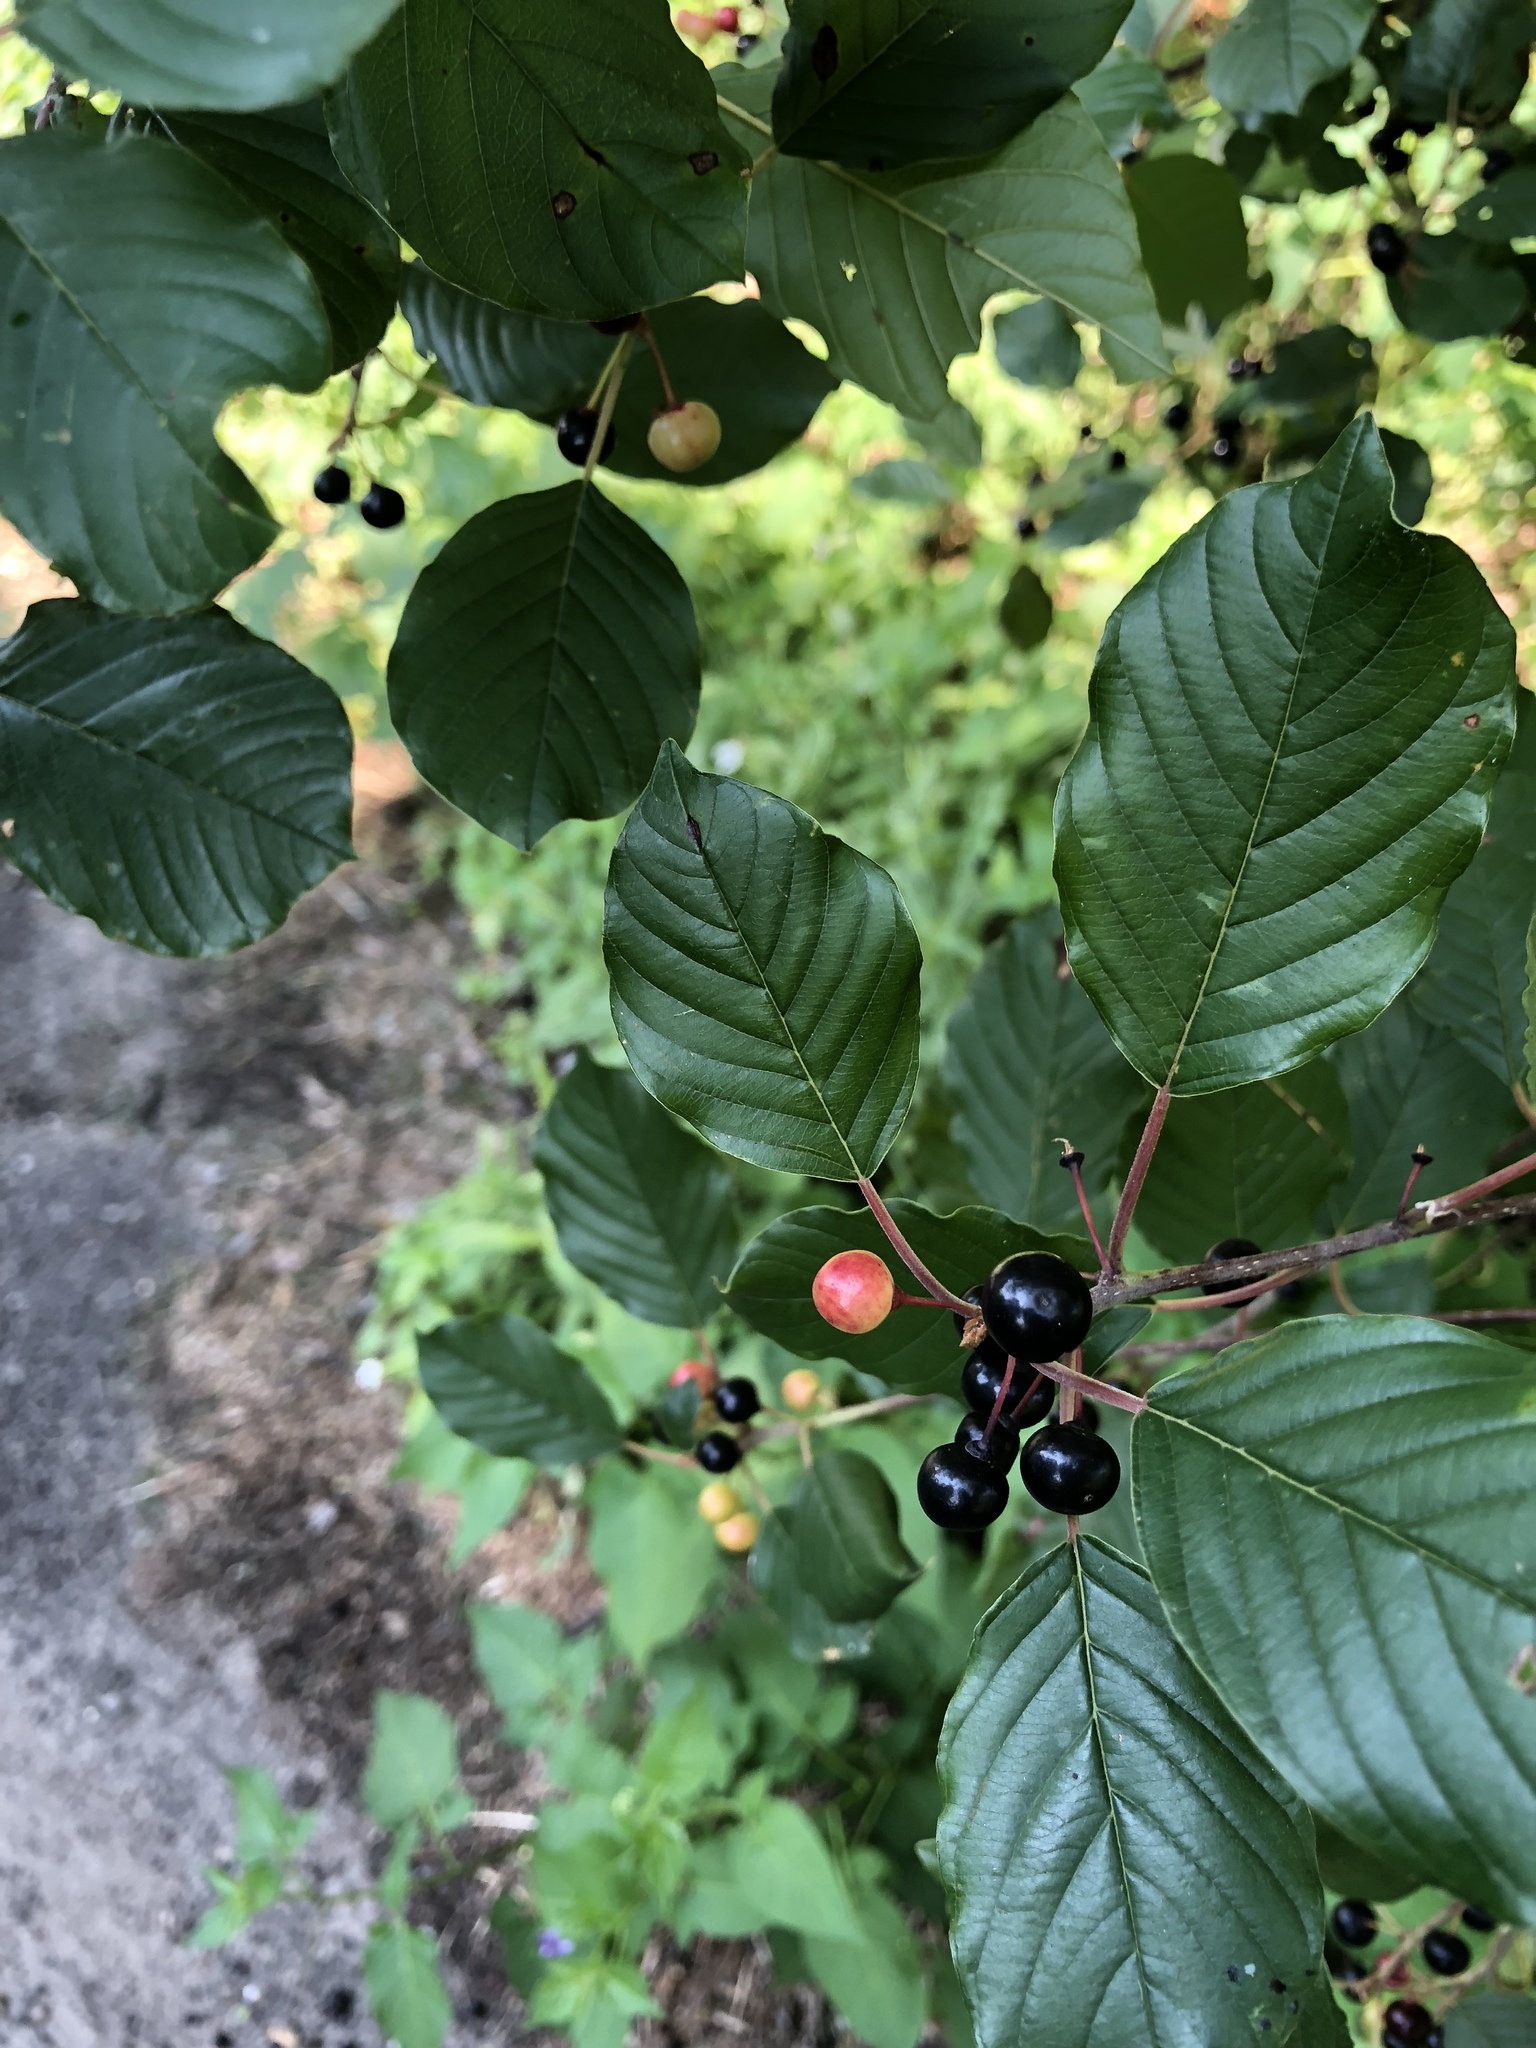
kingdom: Plantae
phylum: Tracheophyta
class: Magnoliopsida
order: Rosales
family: Rhamnaceae
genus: Frangula
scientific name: Frangula alnus
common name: Alder buckthorn
